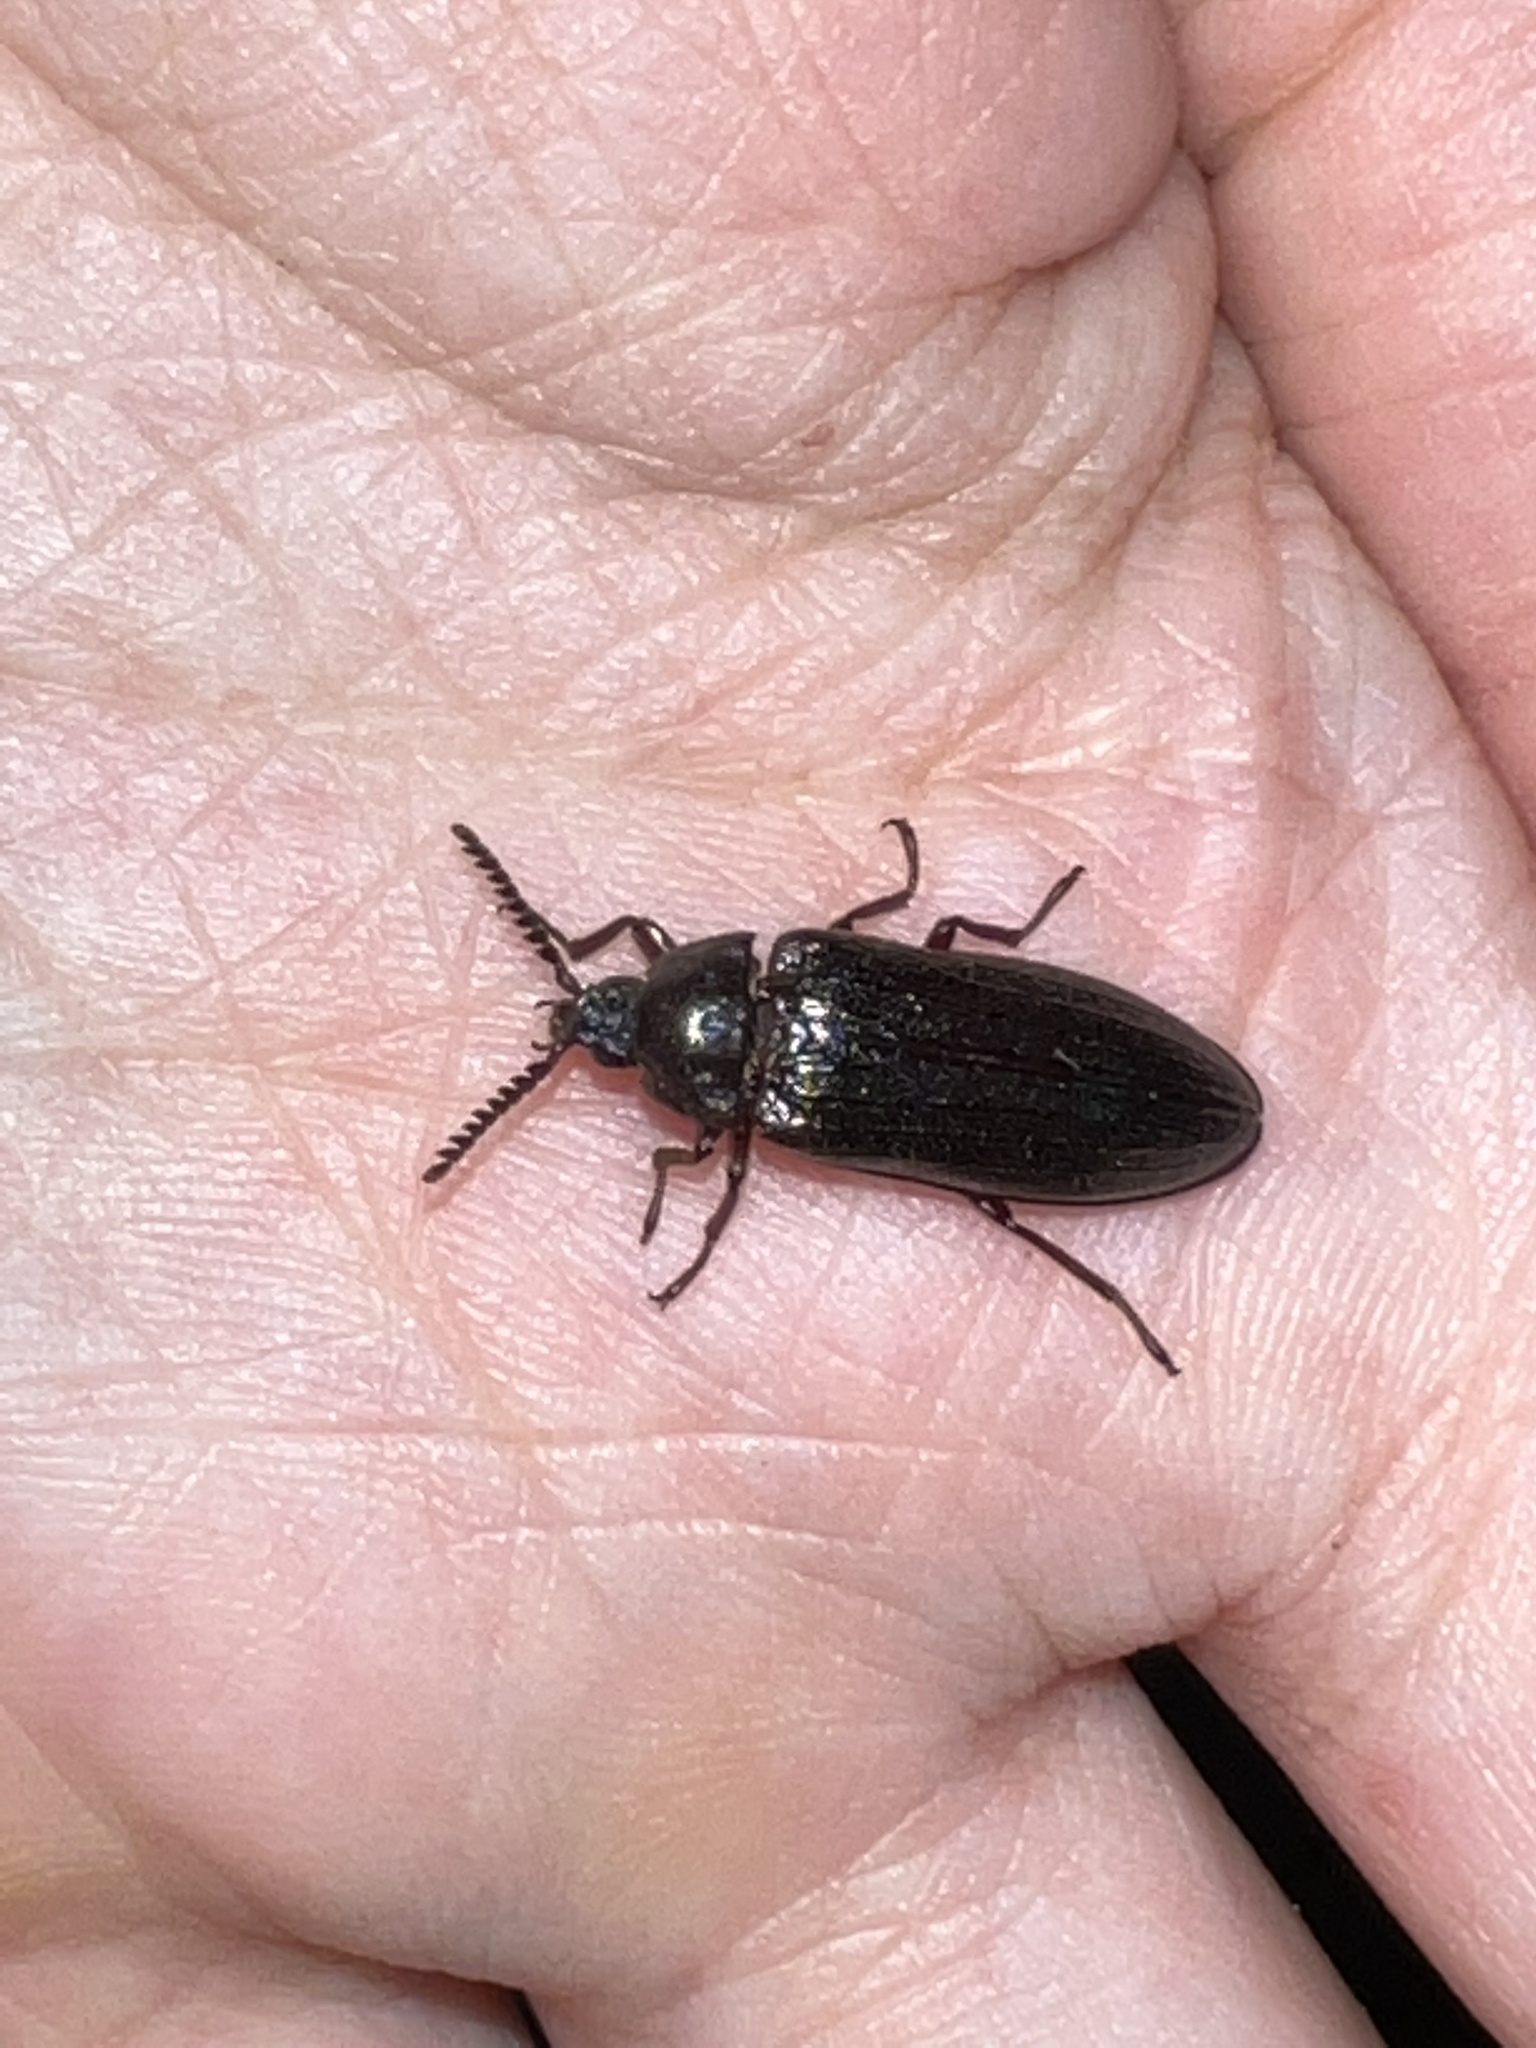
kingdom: Animalia
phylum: Arthropoda
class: Insecta
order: Coleoptera
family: Callirhipidae
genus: Zenoa
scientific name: Zenoa picea
